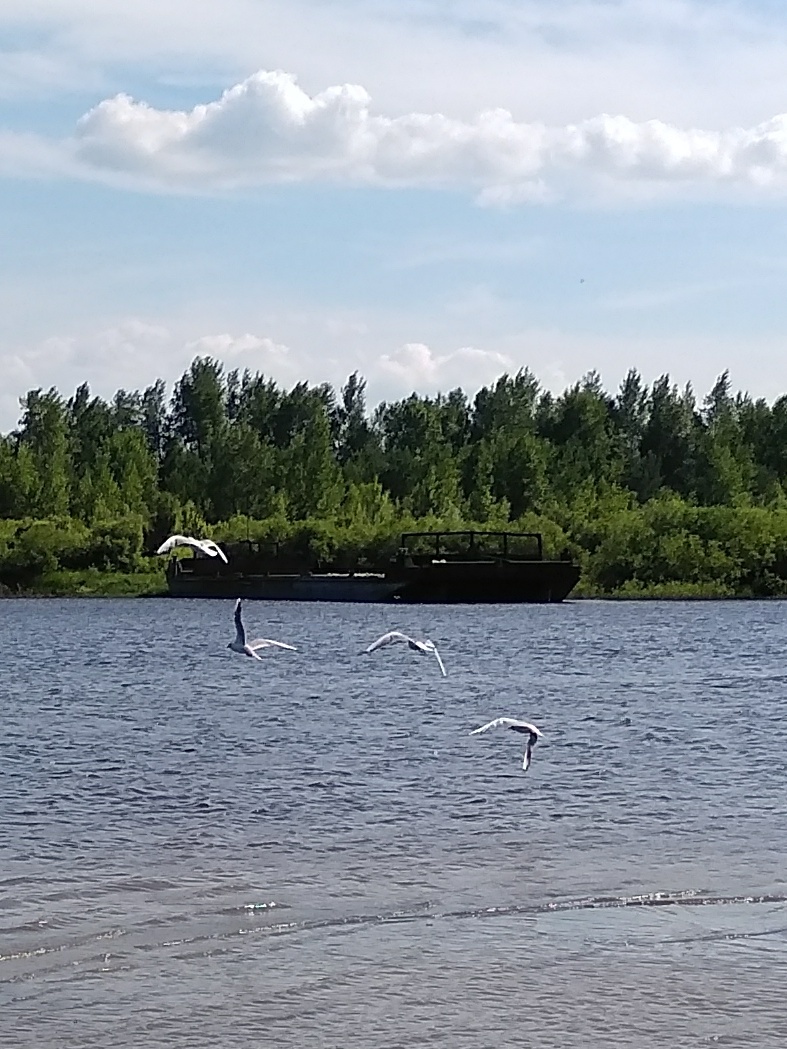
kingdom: Animalia
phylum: Chordata
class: Aves
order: Charadriiformes
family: Laridae
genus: Chroicocephalus
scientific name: Chroicocephalus ridibundus
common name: Black-headed gull
